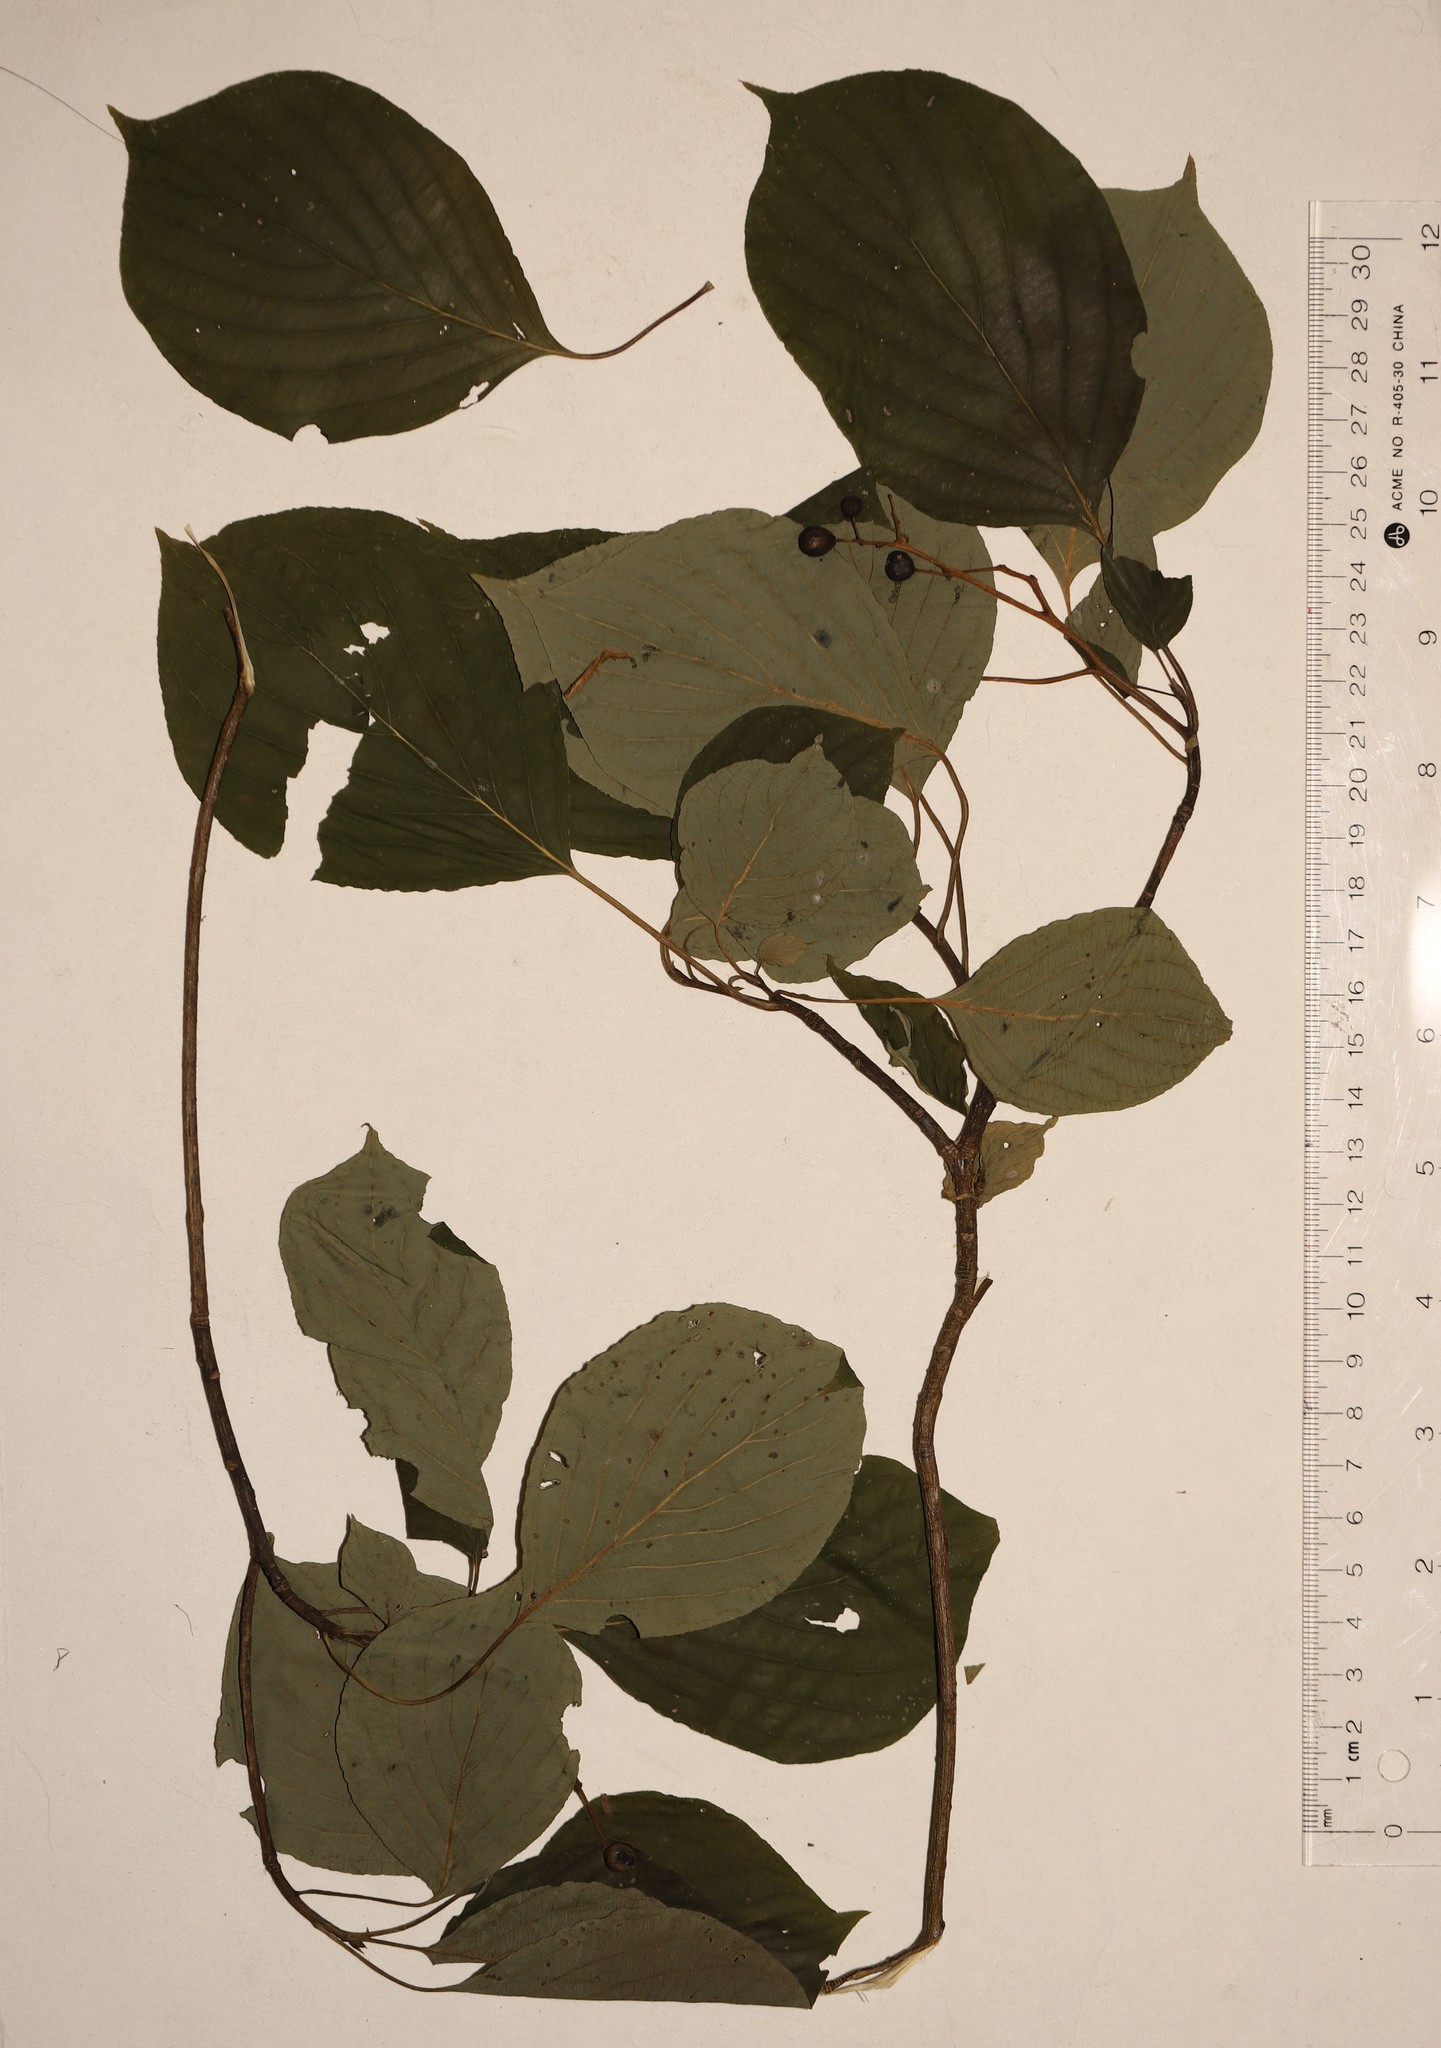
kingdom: Plantae
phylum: Tracheophyta
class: Magnoliopsida
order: Cornales
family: Cornaceae
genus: Cornus
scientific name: Cornus alternifolia
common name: Pagoda dogwood
